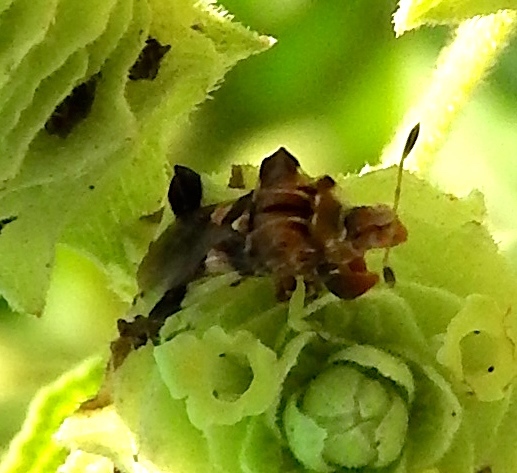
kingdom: Animalia
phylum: Arthropoda
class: Insecta
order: Hemiptera
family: Reduviidae
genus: Phymata
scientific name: Phymata
